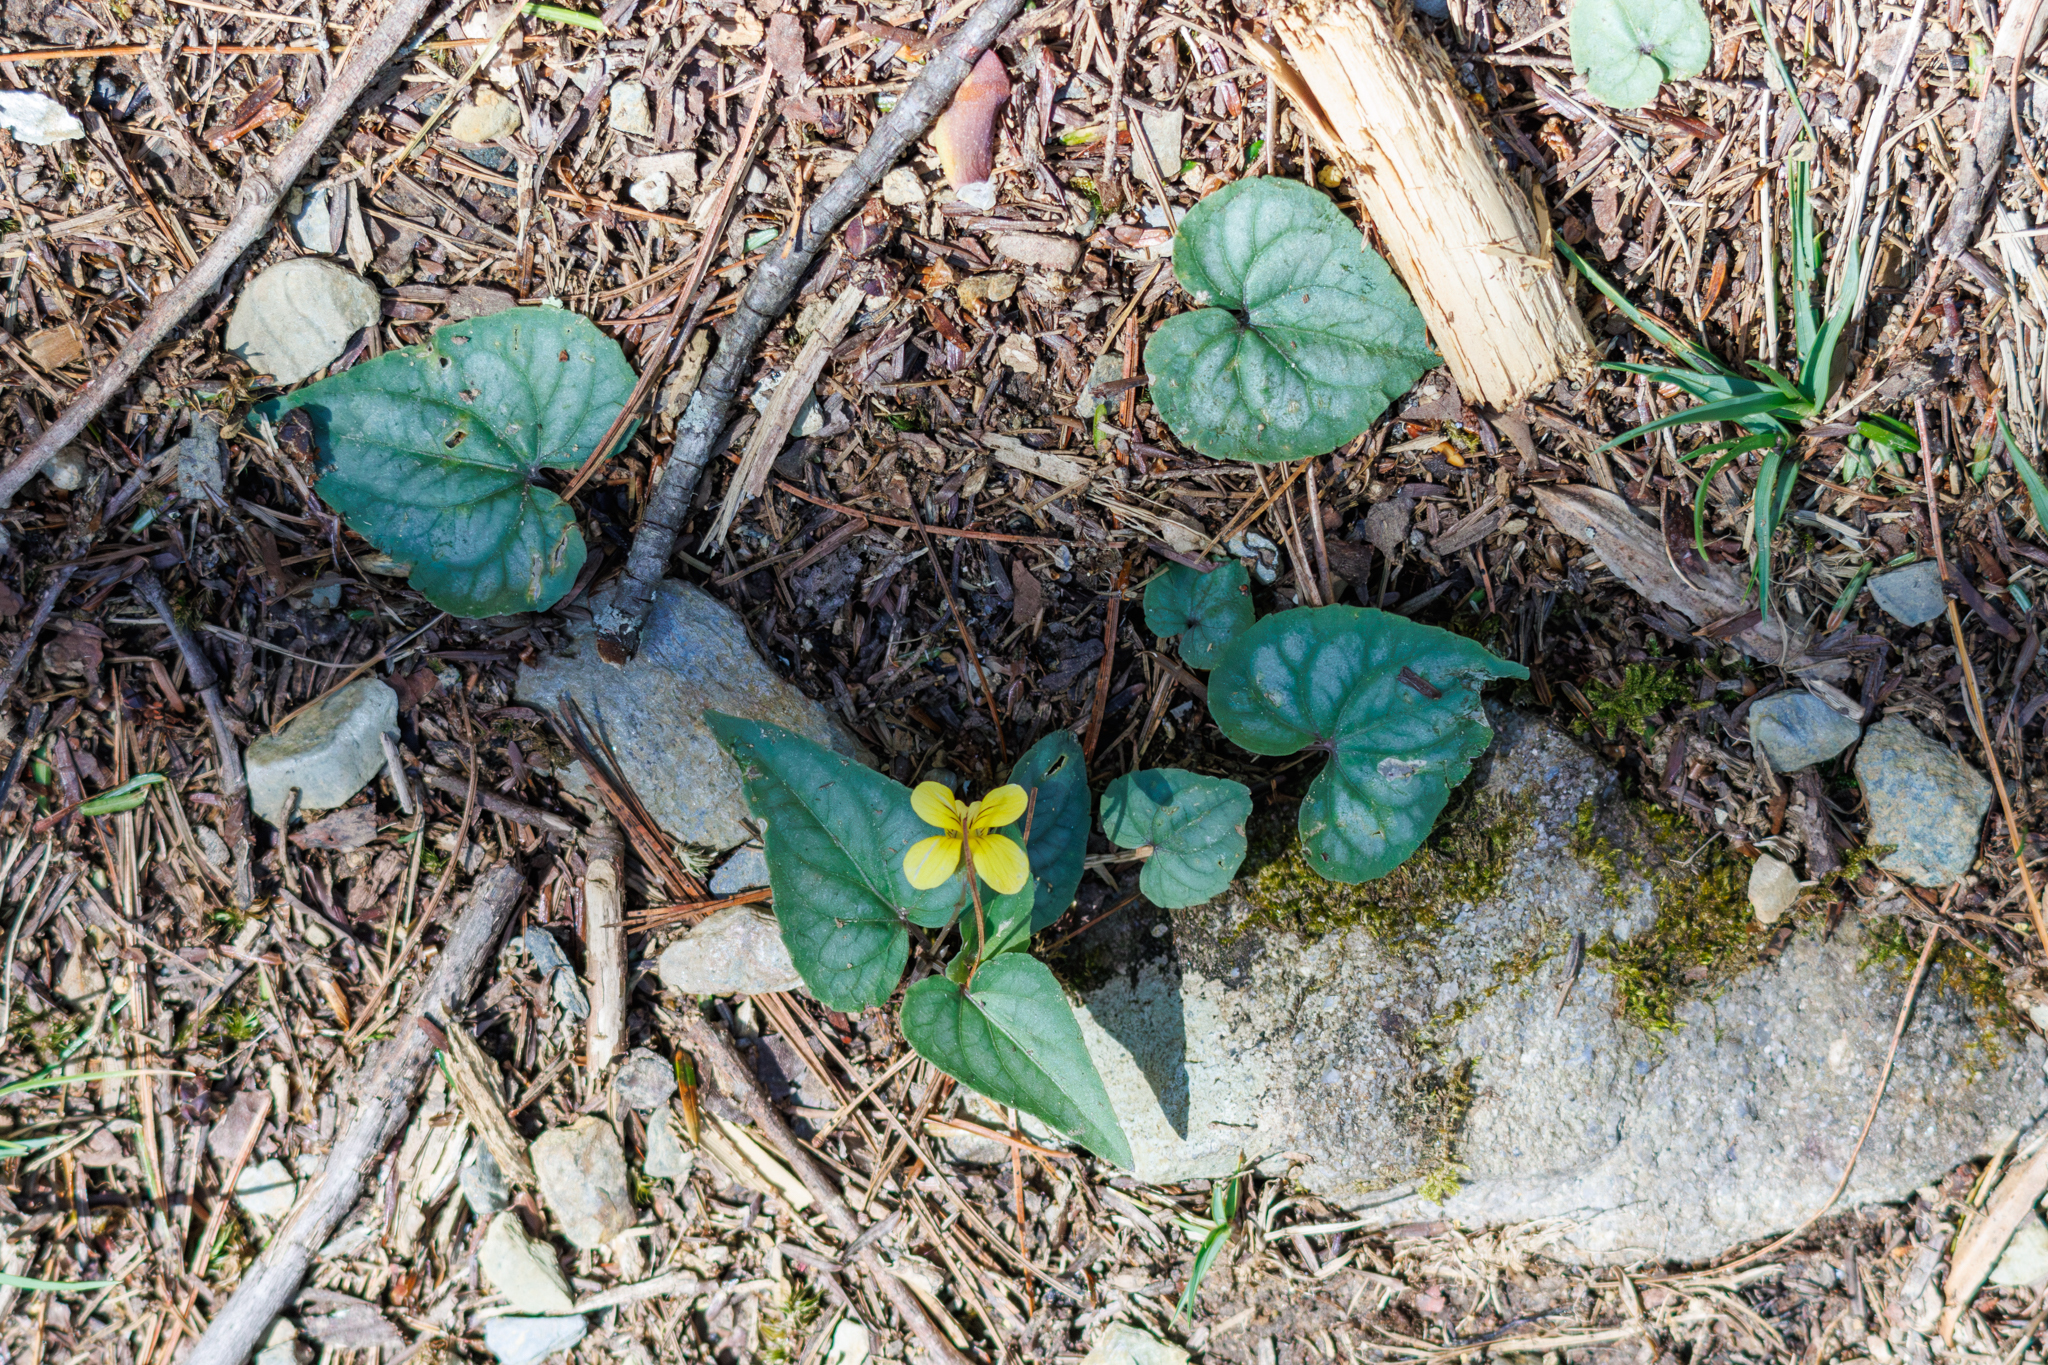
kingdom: Plantae
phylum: Tracheophyta
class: Magnoliopsida
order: Malpighiales
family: Violaceae
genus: Viola
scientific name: Viola hastata
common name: Spear-leaf violet
